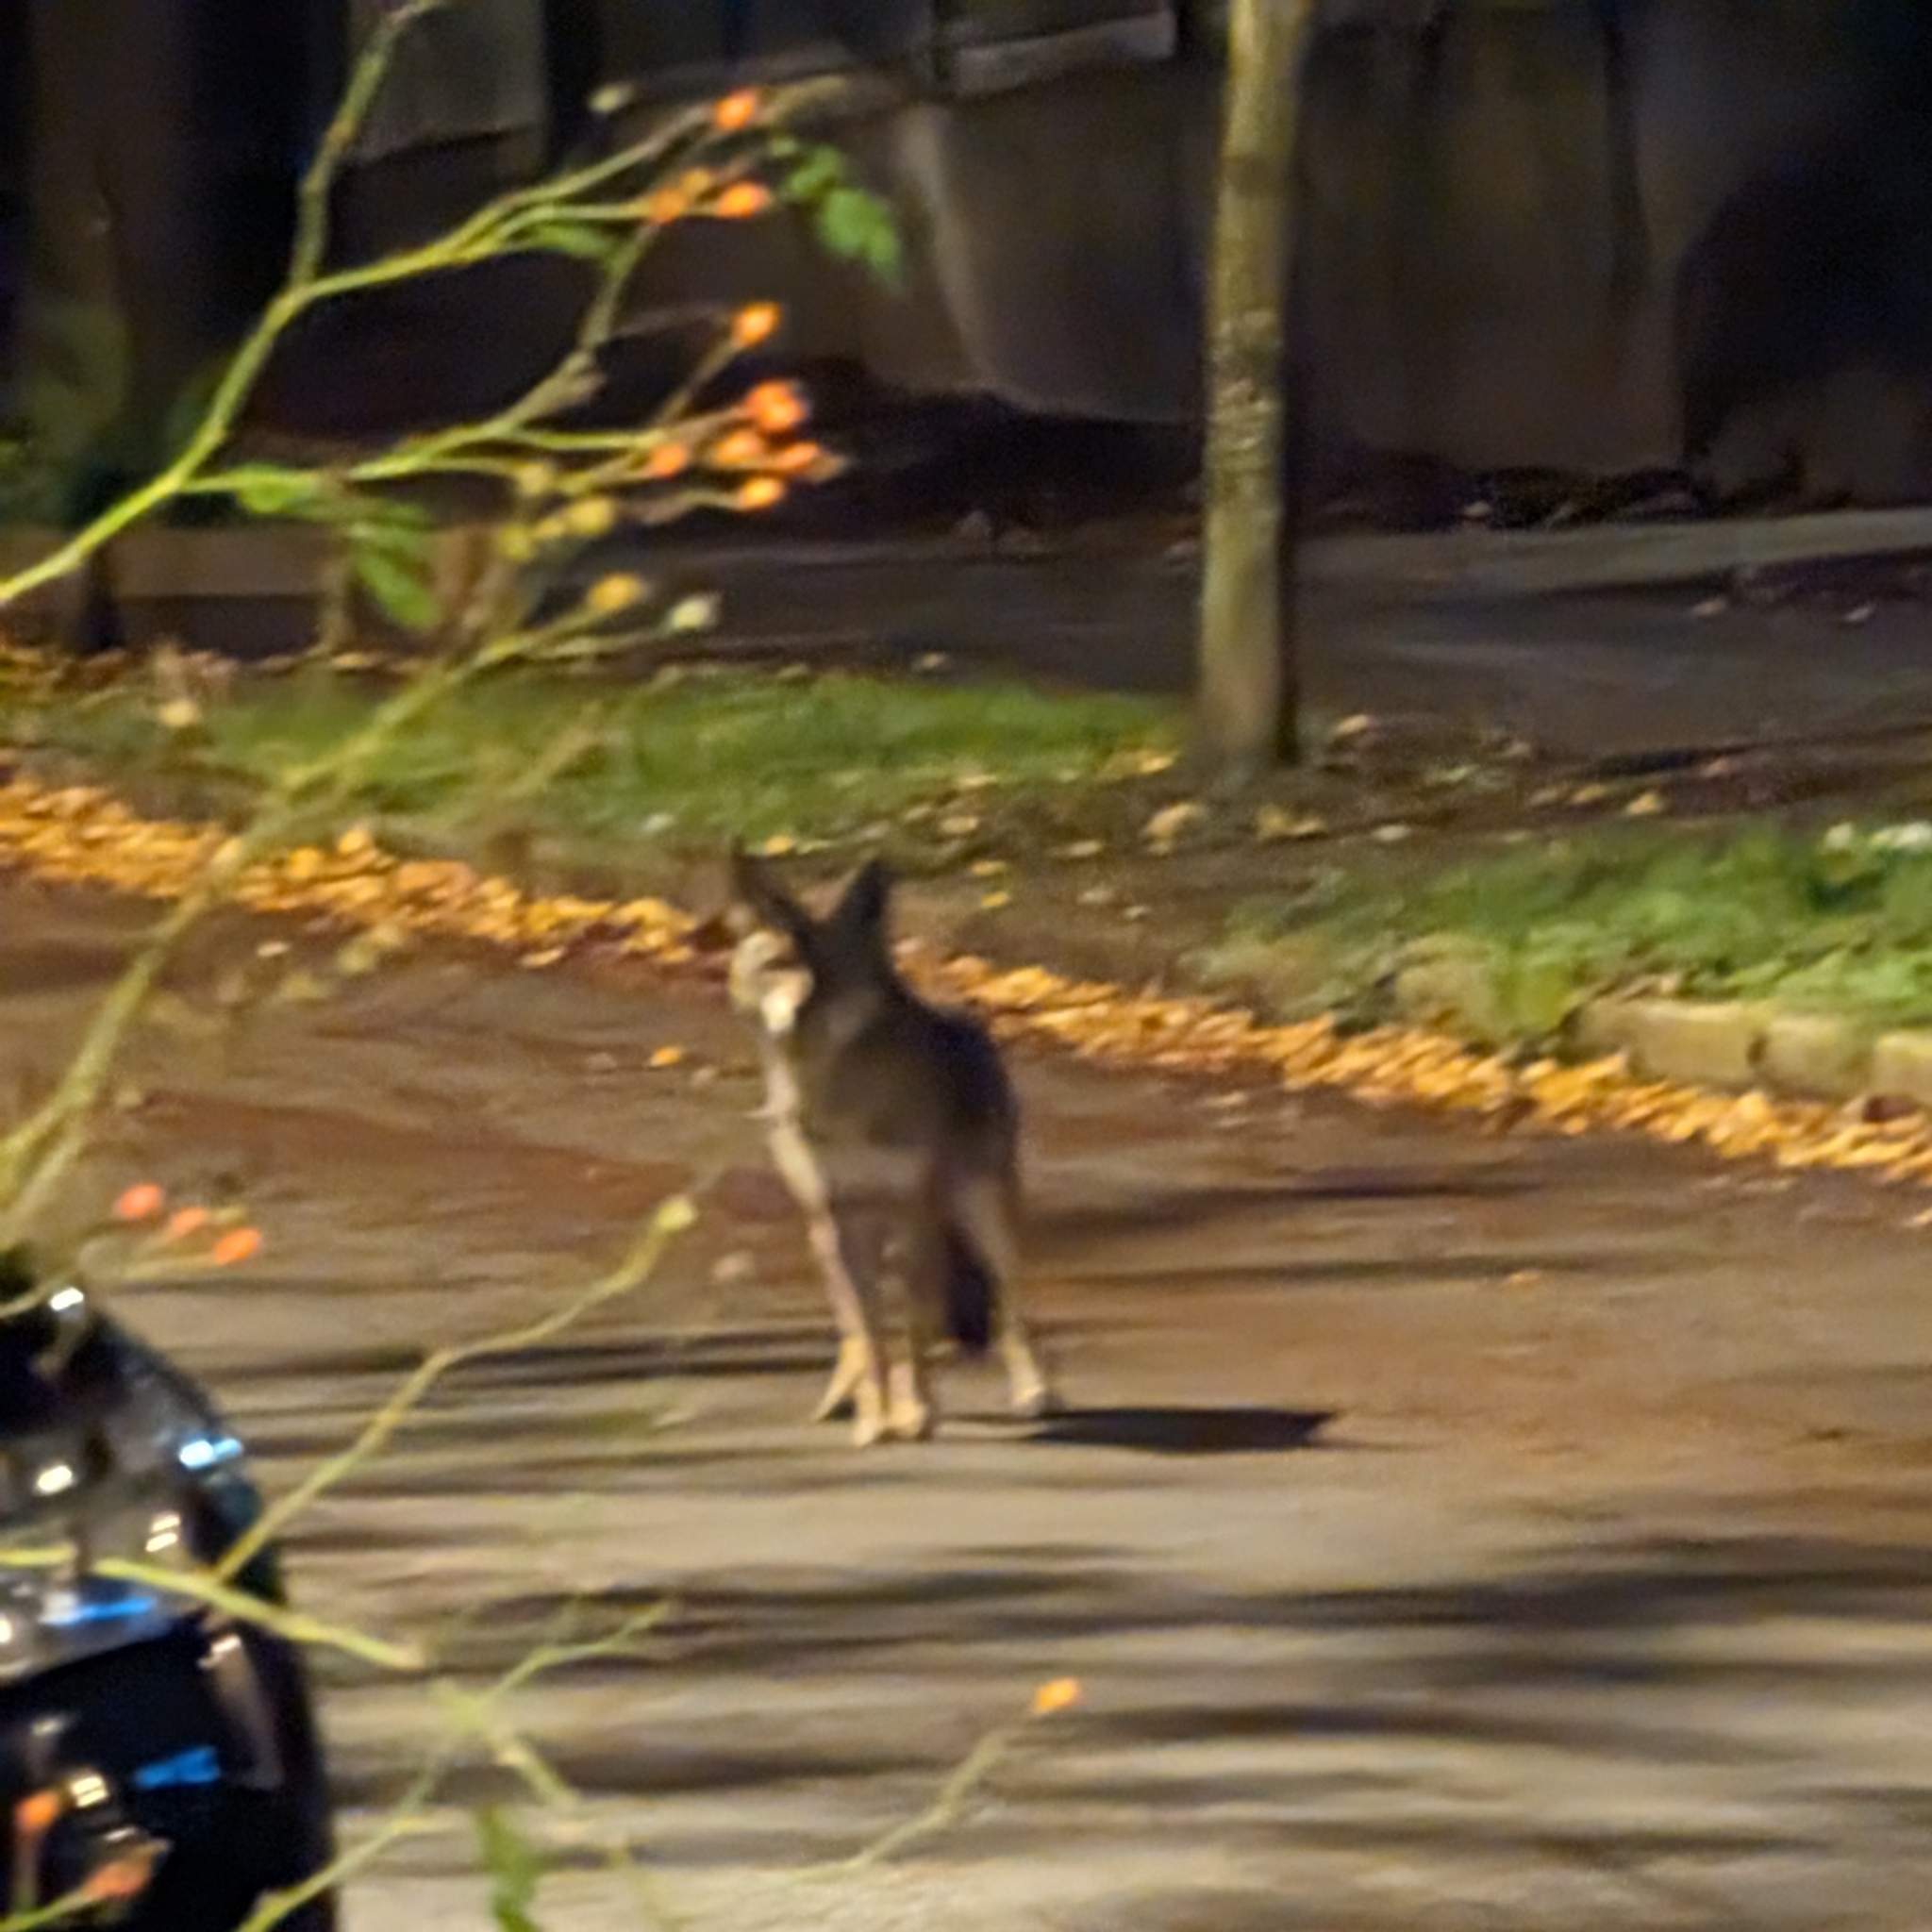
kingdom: Animalia
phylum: Chordata
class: Mammalia
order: Carnivora
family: Canidae
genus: Canis
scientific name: Canis latrans
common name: Coyote
